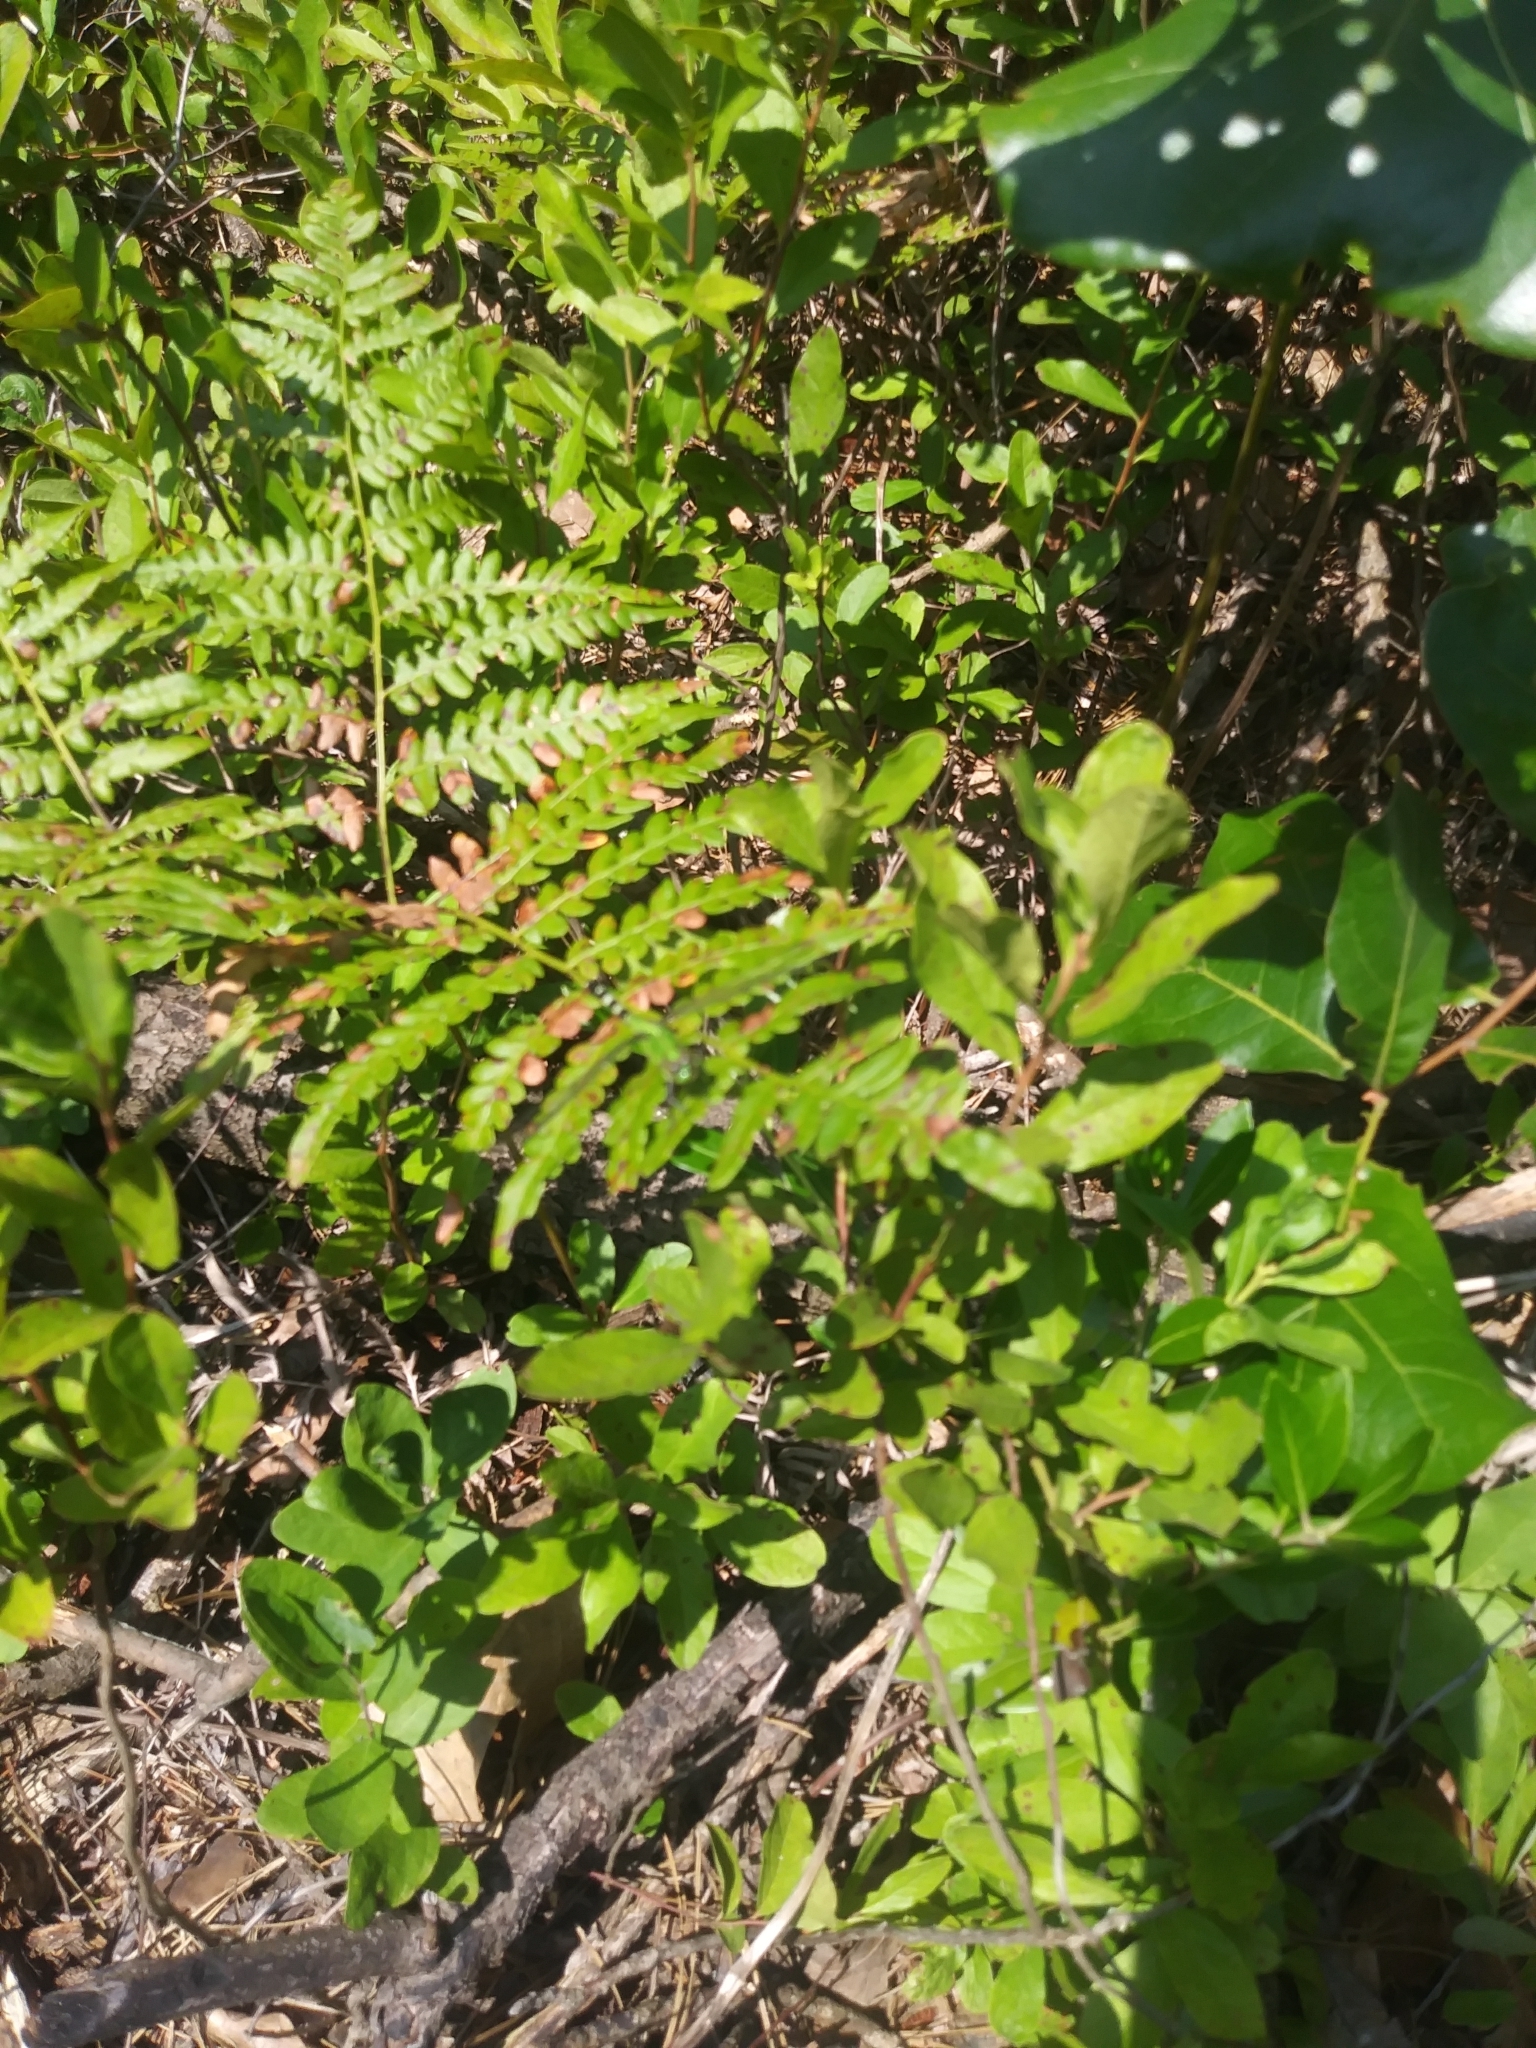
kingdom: Animalia
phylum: Arthropoda
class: Insecta
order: Odonata
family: Libellulidae
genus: Erythemis
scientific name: Erythemis simplicicollis
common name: Eastern pondhawk
